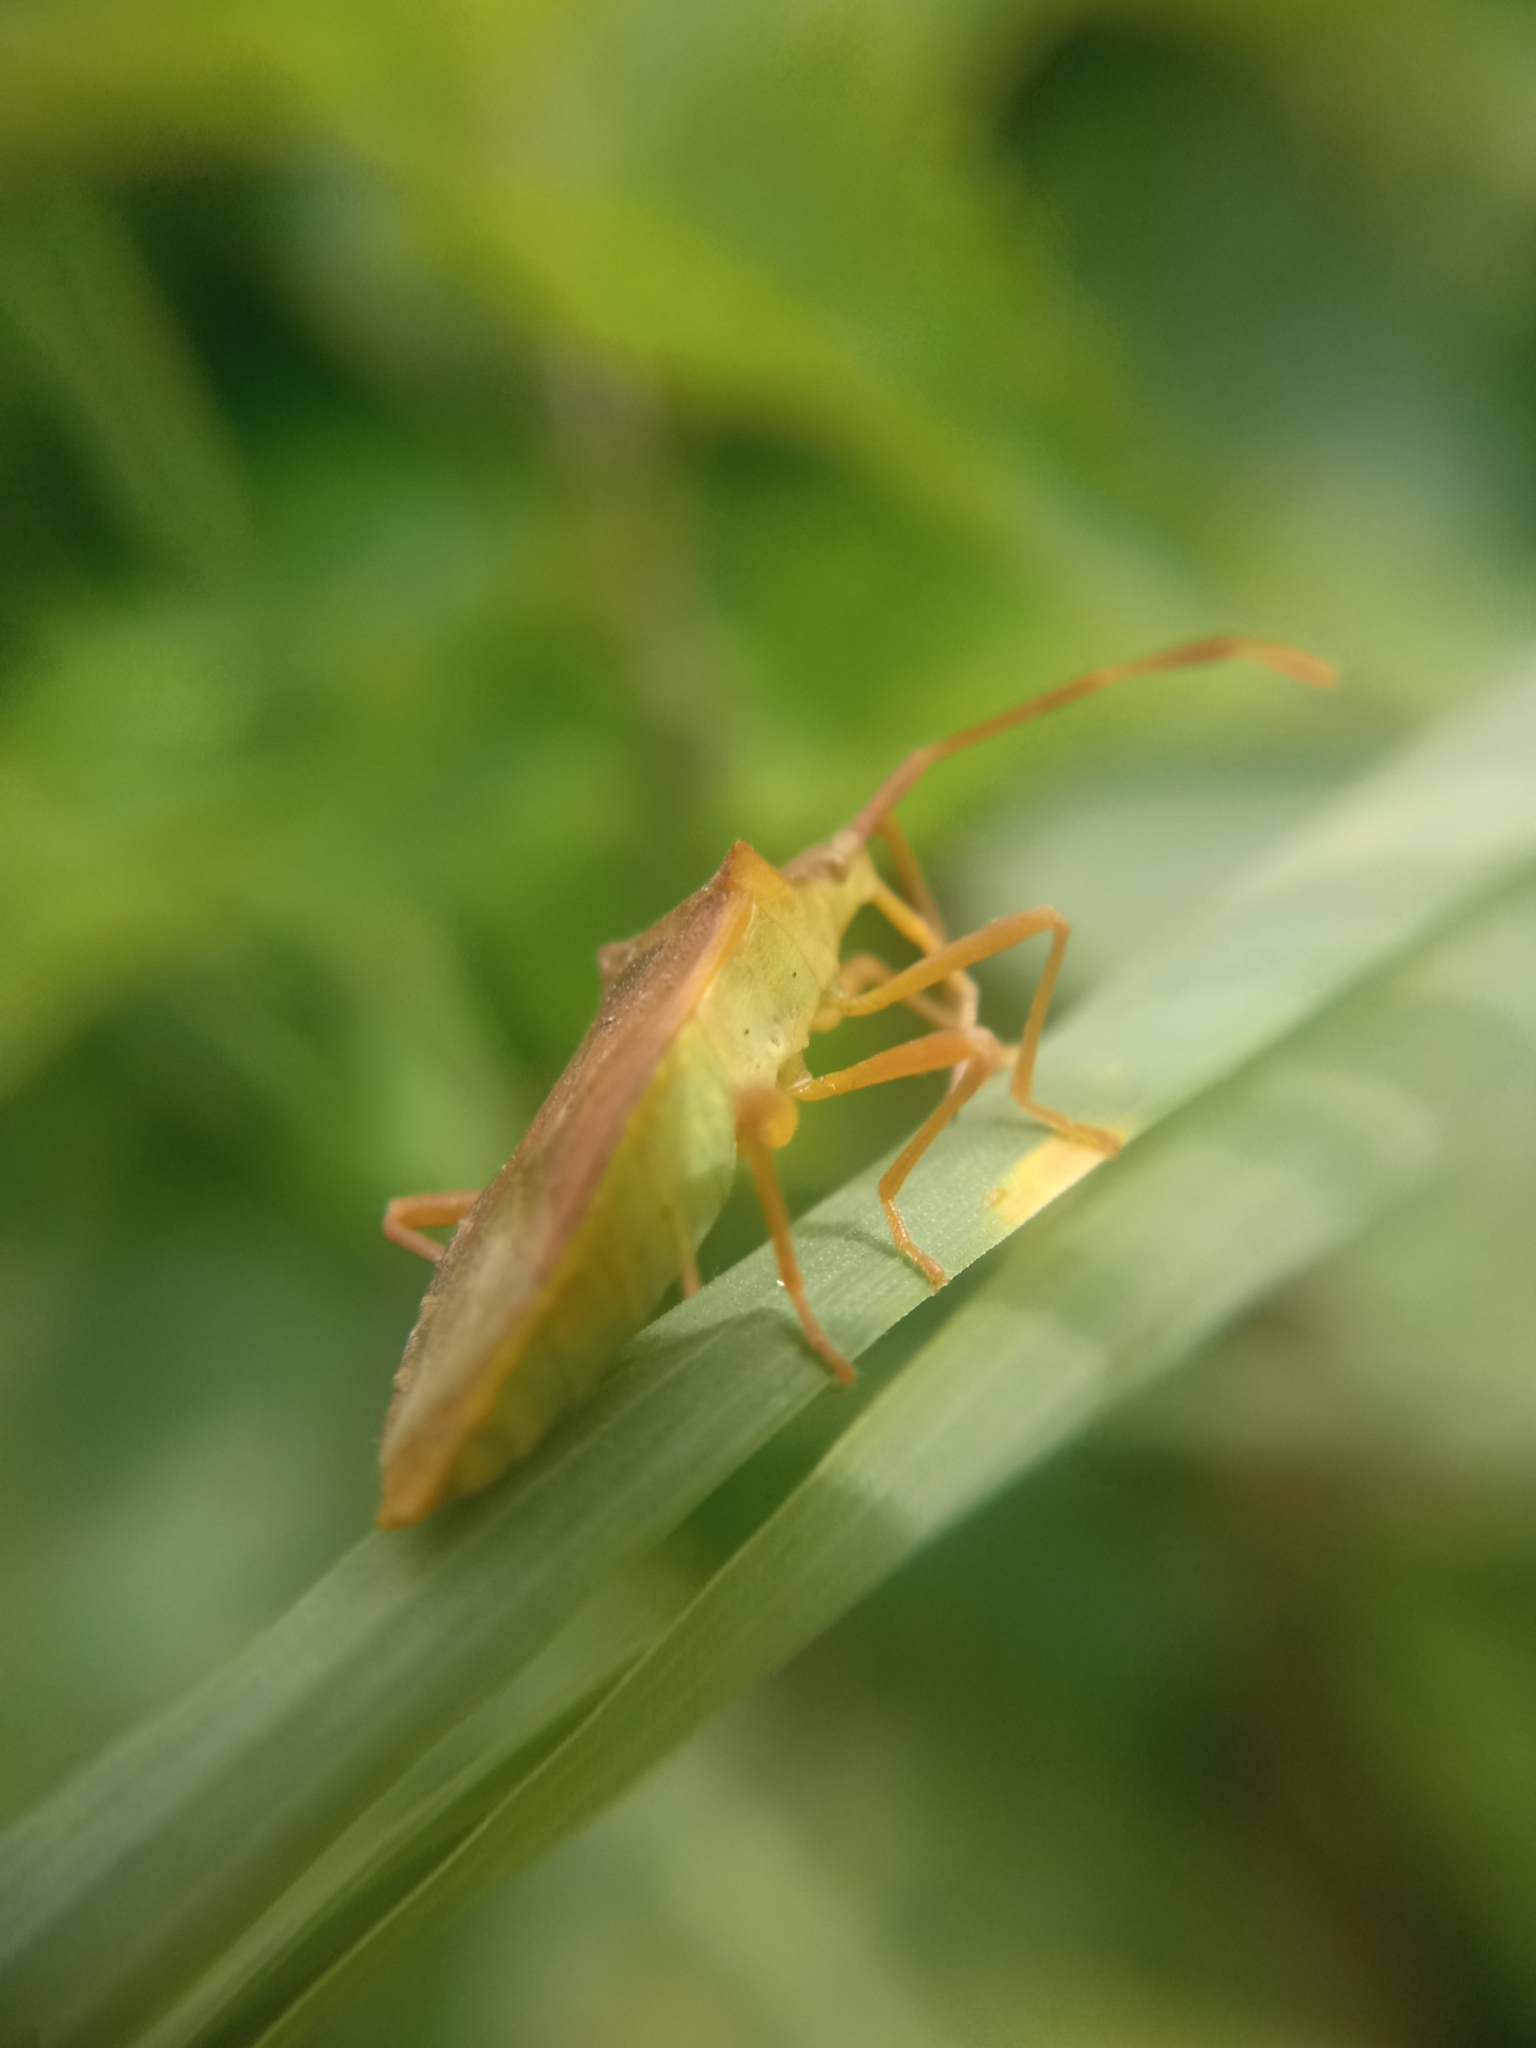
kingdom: Animalia
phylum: Arthropoda
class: Insecta
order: Hemiptera
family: Coreidae
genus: Gonocerus
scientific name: Gonocerus acuteangulatus
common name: Box bug
